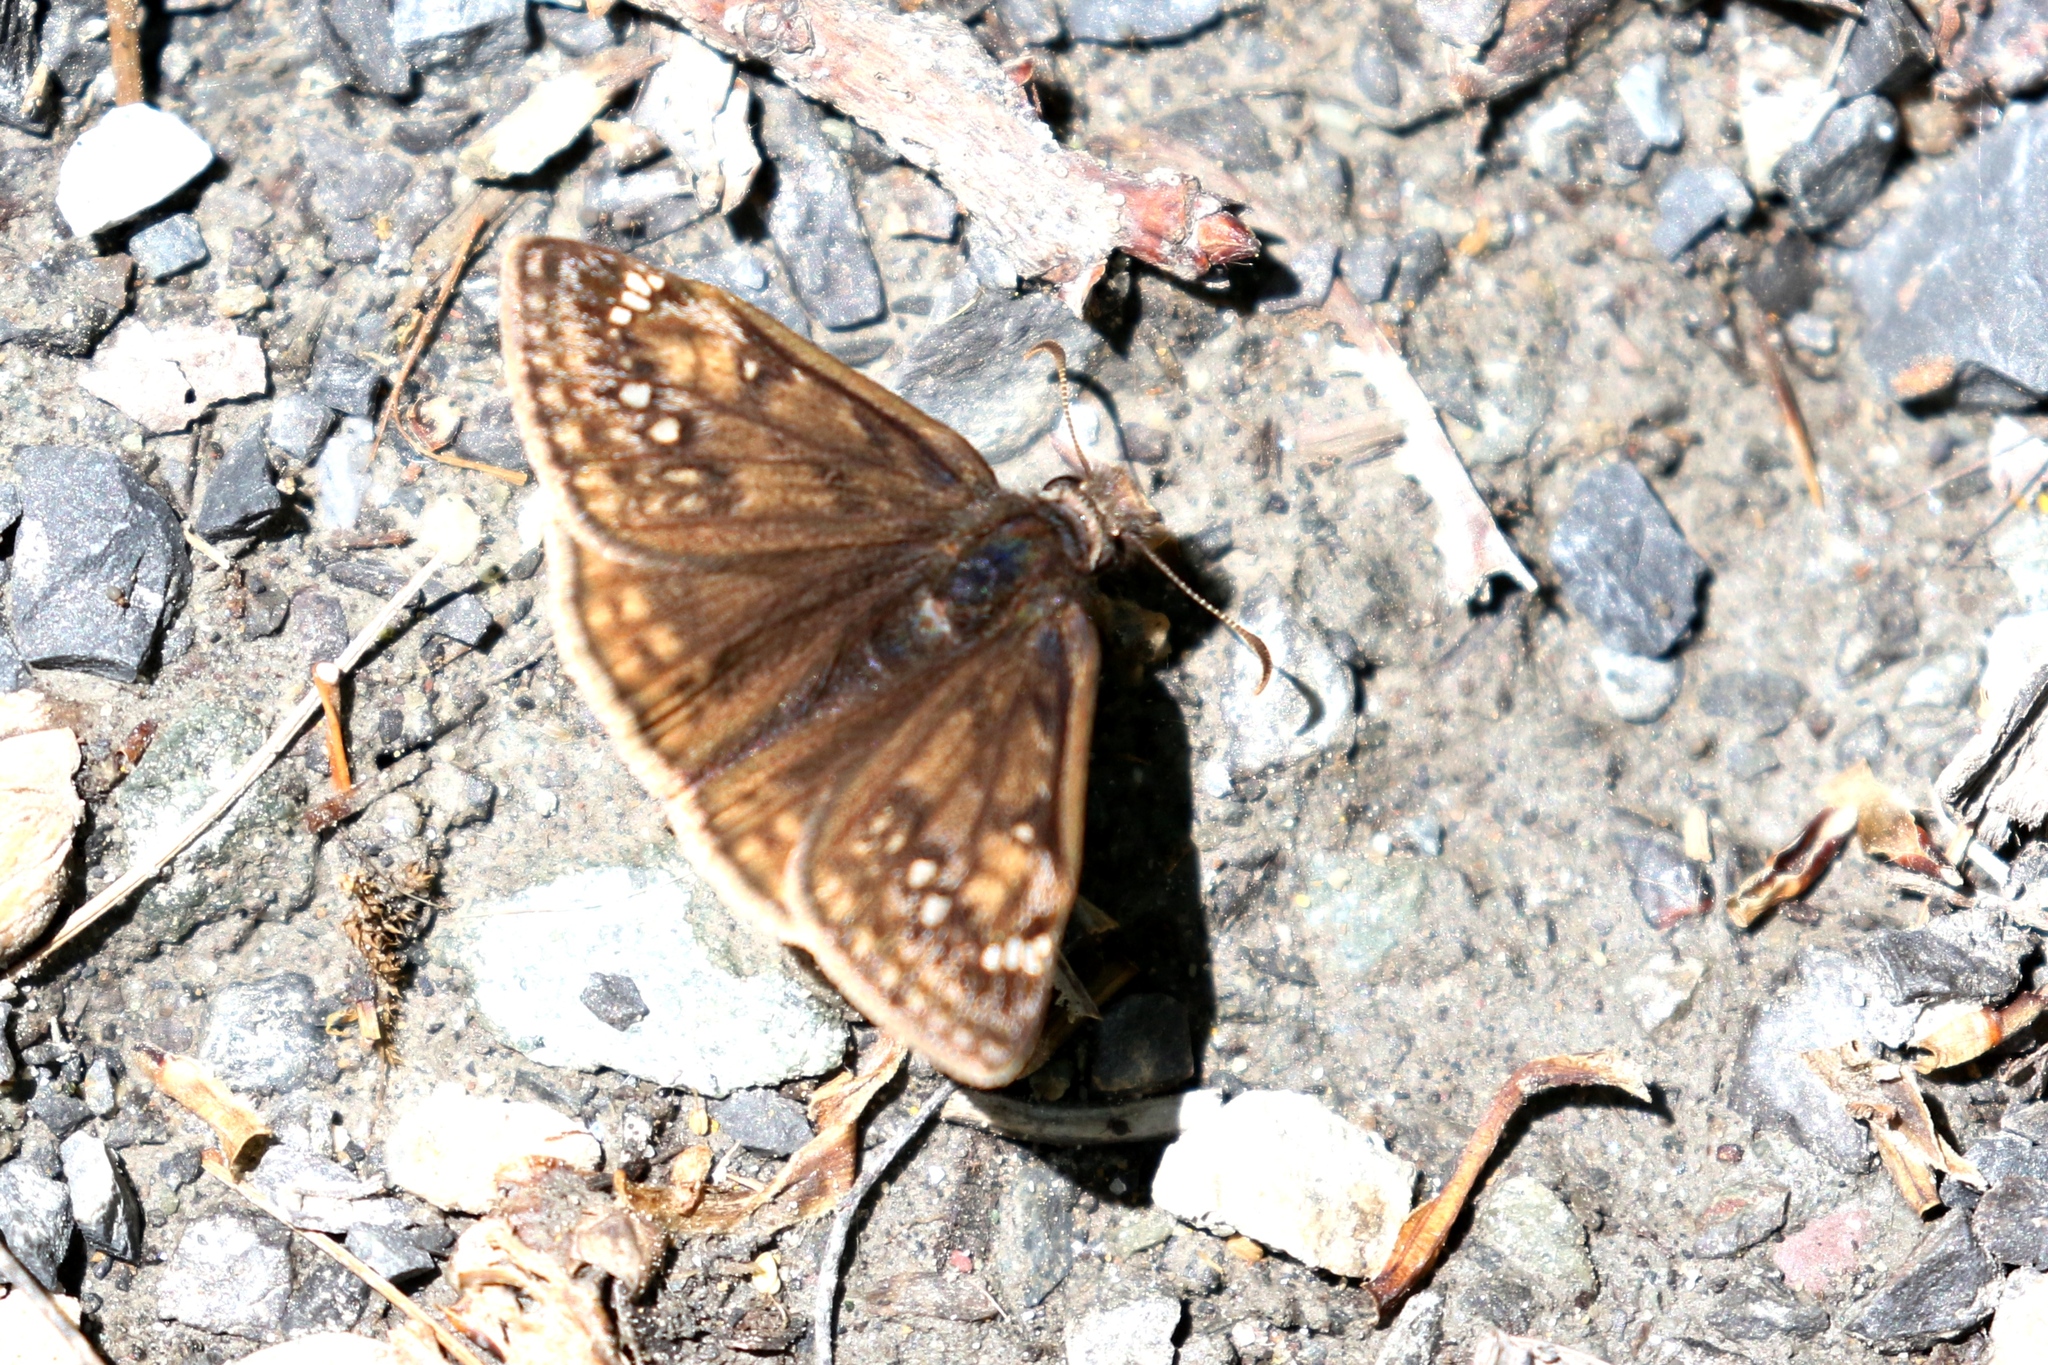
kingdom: Animalia
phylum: Arthropoda
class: Insecta
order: Lepidoptera
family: Hesperiidae
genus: Erynnis
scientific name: Erynnis juvenalis
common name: Juvenal's duskywing
